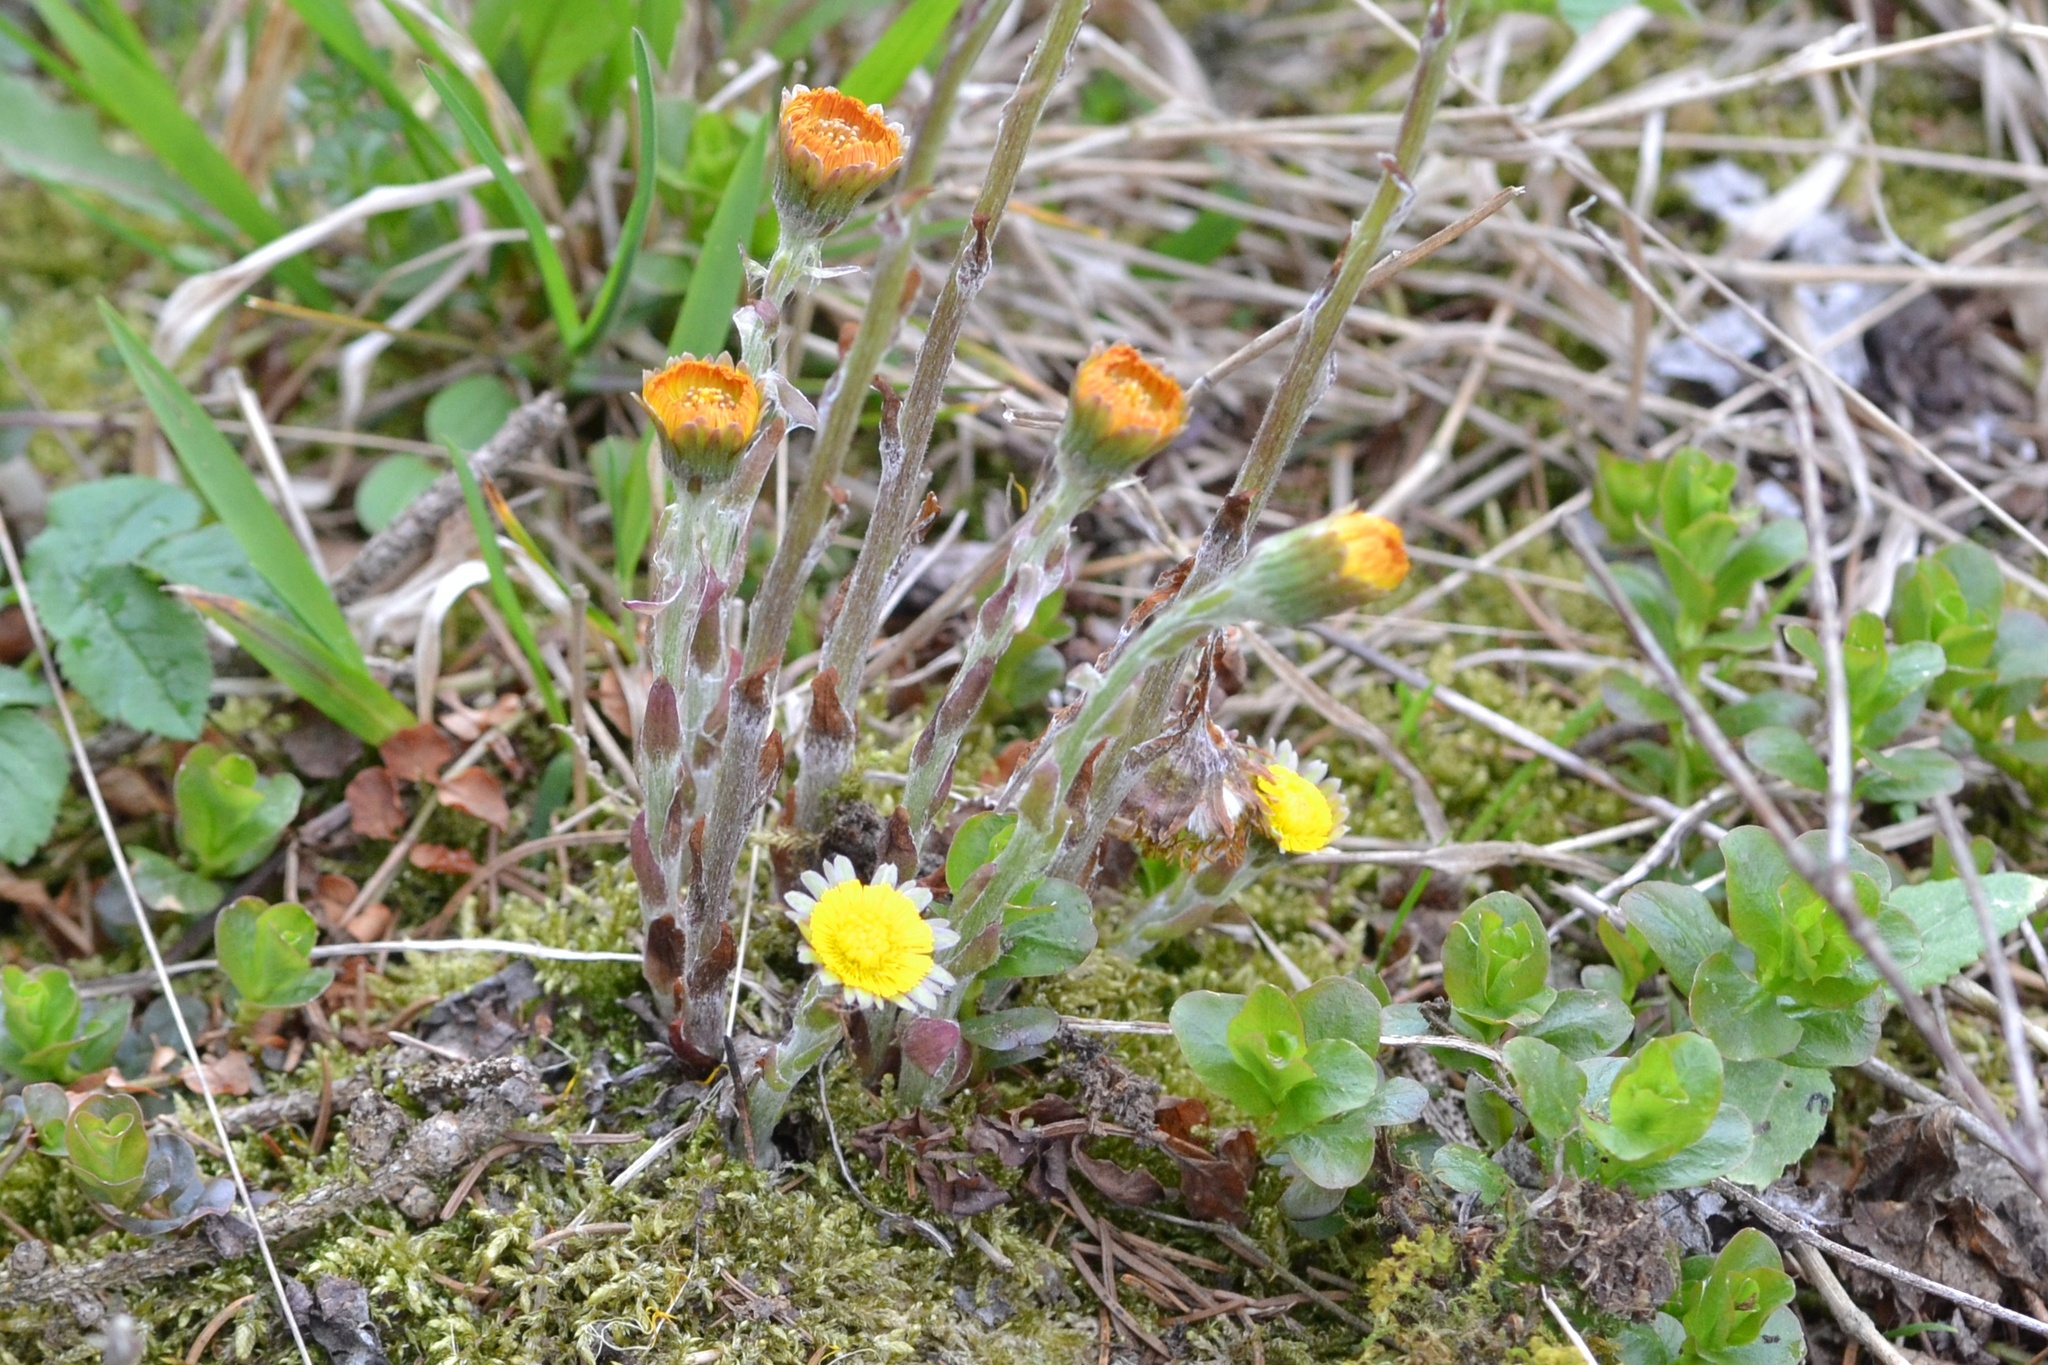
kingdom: Plantae
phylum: Tracheophyta
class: Magnoliopsida
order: Asterales
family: Asteraceae
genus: Tussilago
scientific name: Tussilago farfara
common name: Coltsfoot
